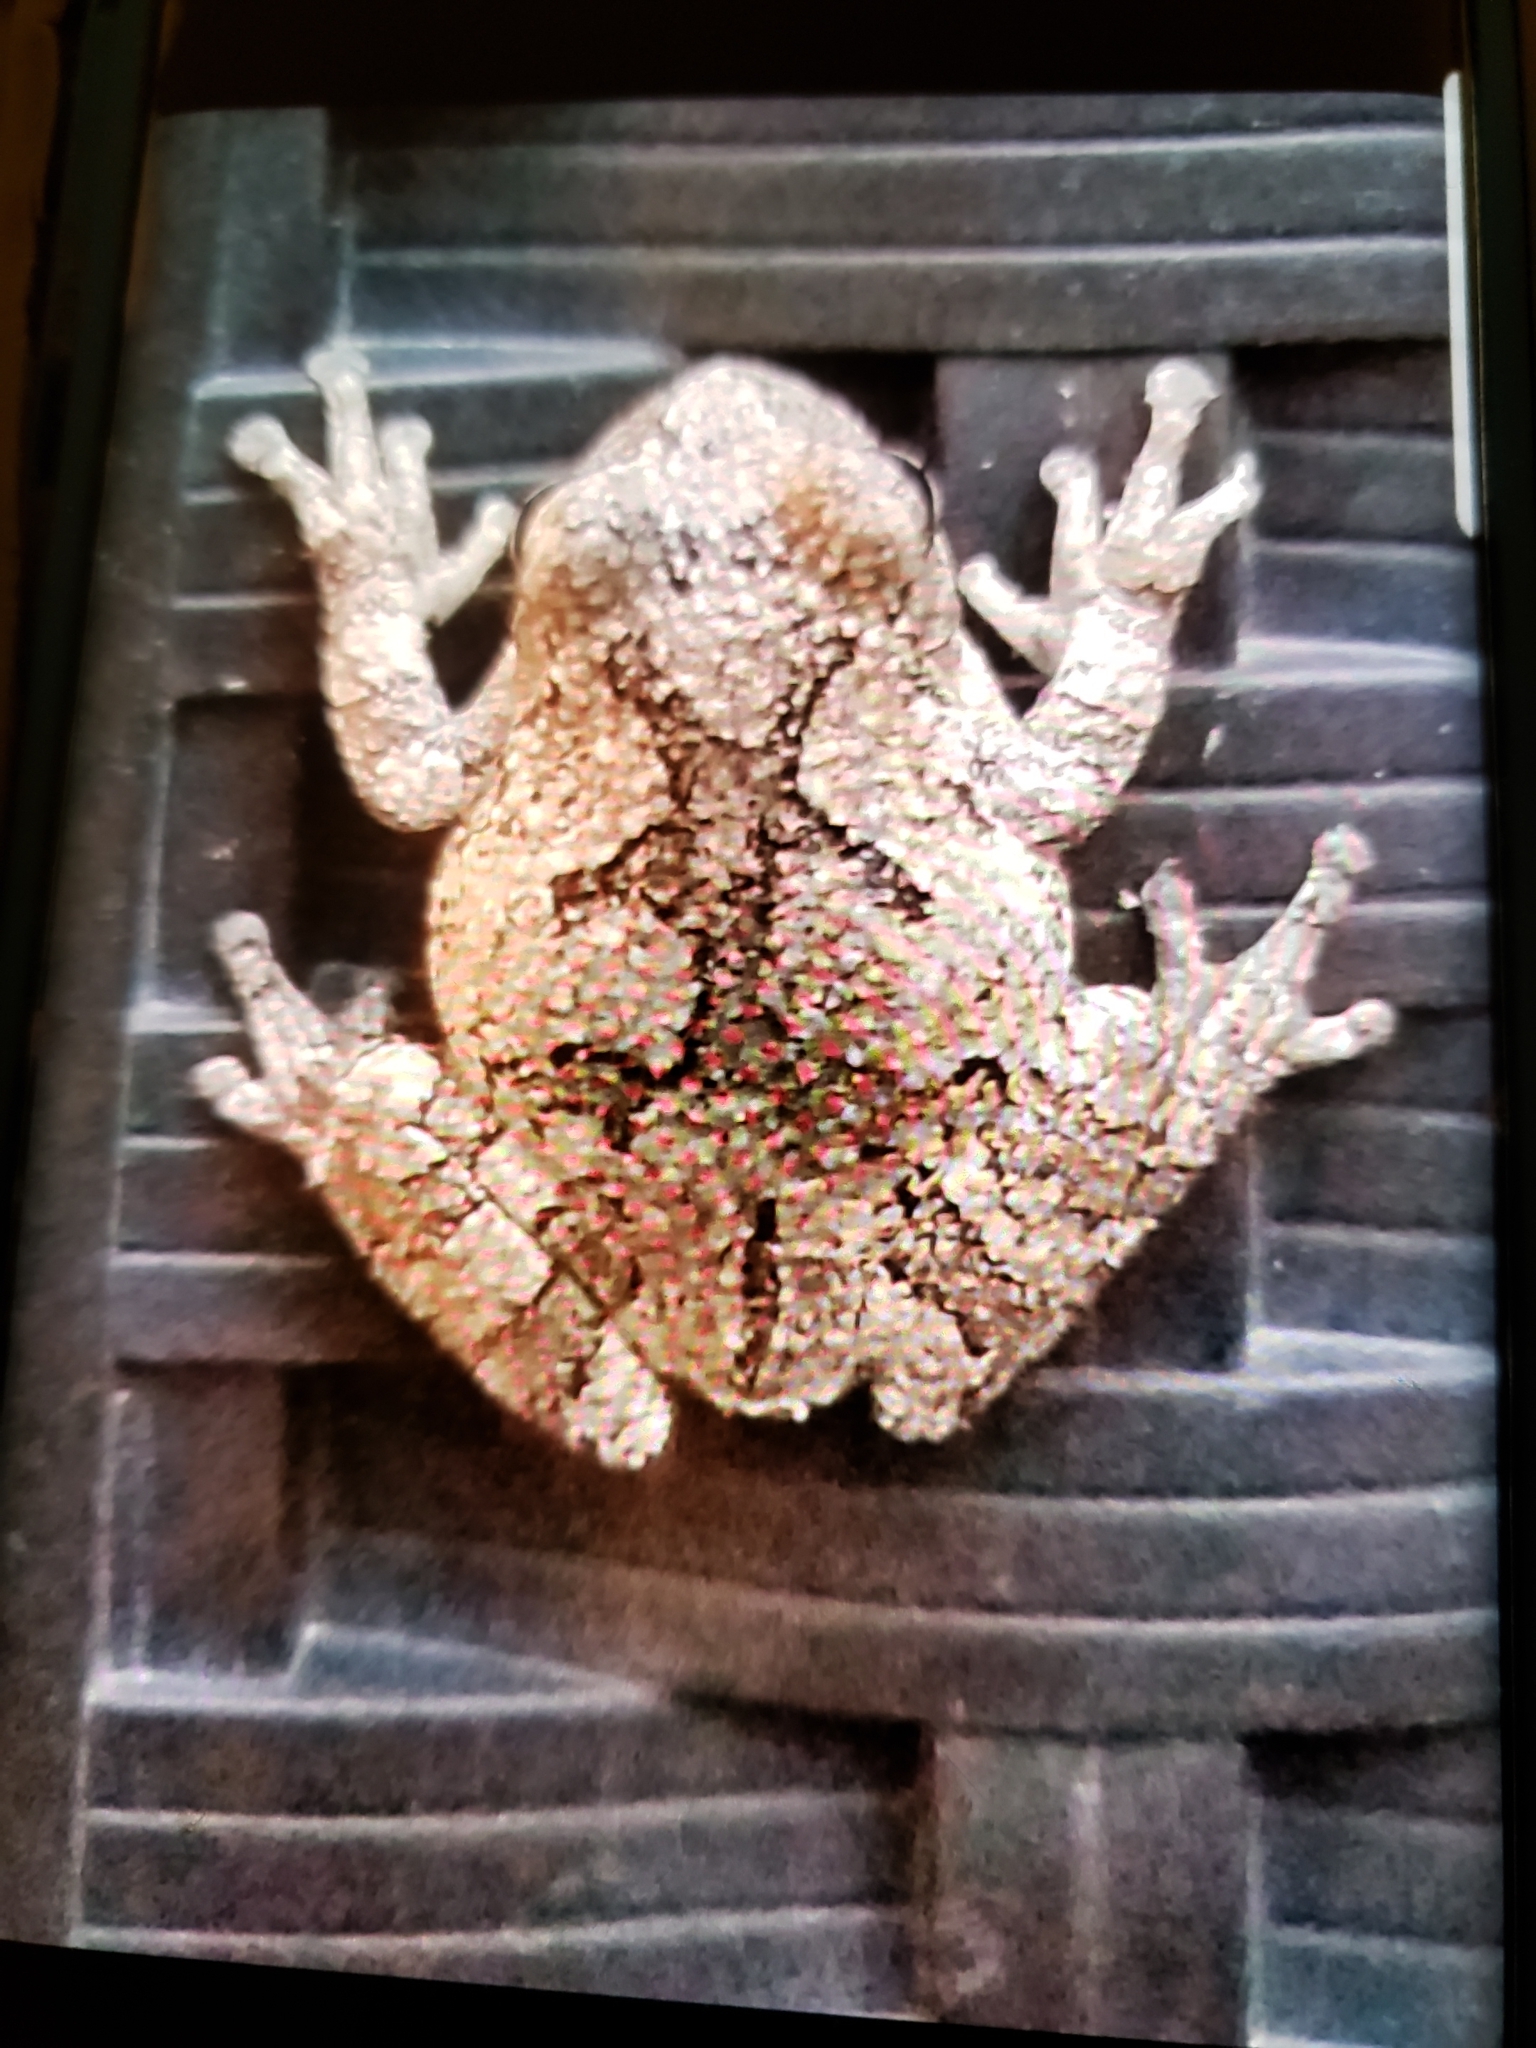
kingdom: Animalia
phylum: Chordata
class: Amphibia
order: Anura
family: Hylidae
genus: Hyla
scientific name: Hyla
